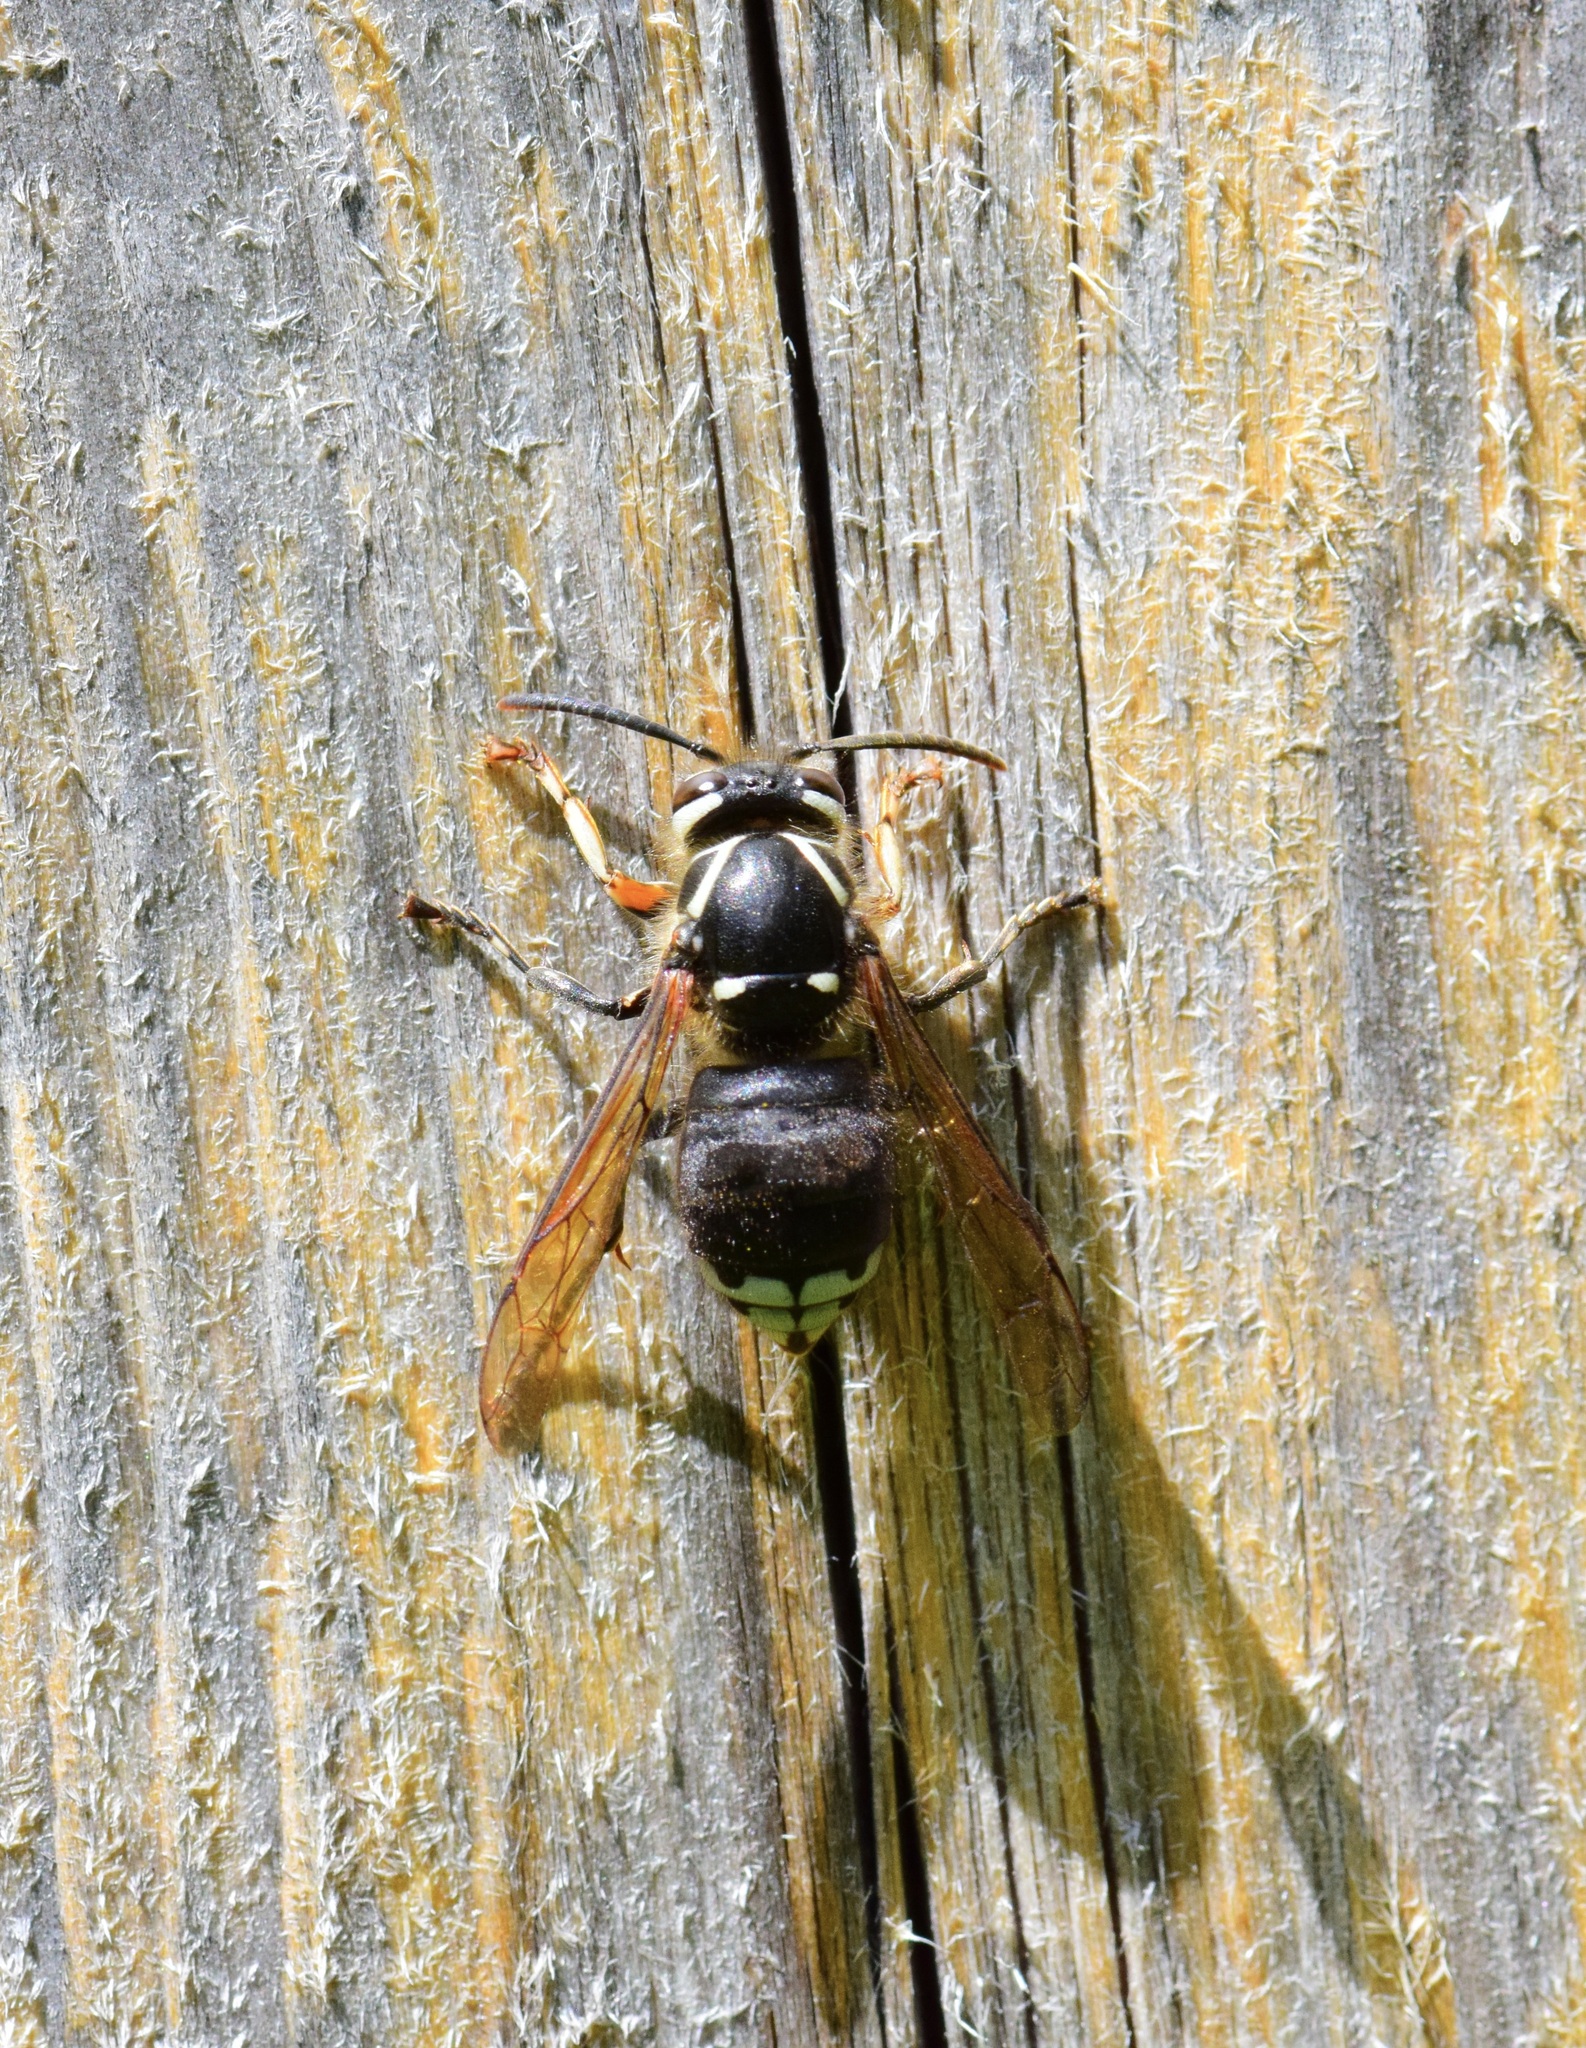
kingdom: Animalia
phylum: Arthropoda
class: Insecta
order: Hymenoptera
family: Vespidae
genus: Dolichovespula
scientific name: Dolichovespula maculata
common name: Bald-faced hornet
